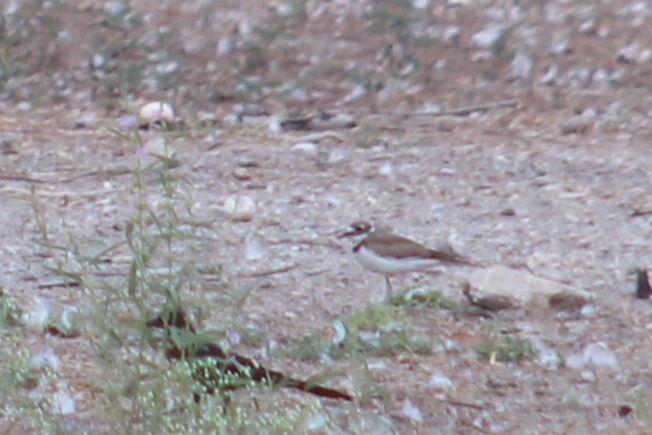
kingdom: Animalia
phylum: Chordata
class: Aves
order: Charadriiformes
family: Charadriidae
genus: Charadrius
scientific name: Charadrius vociferus
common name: Killdeer
